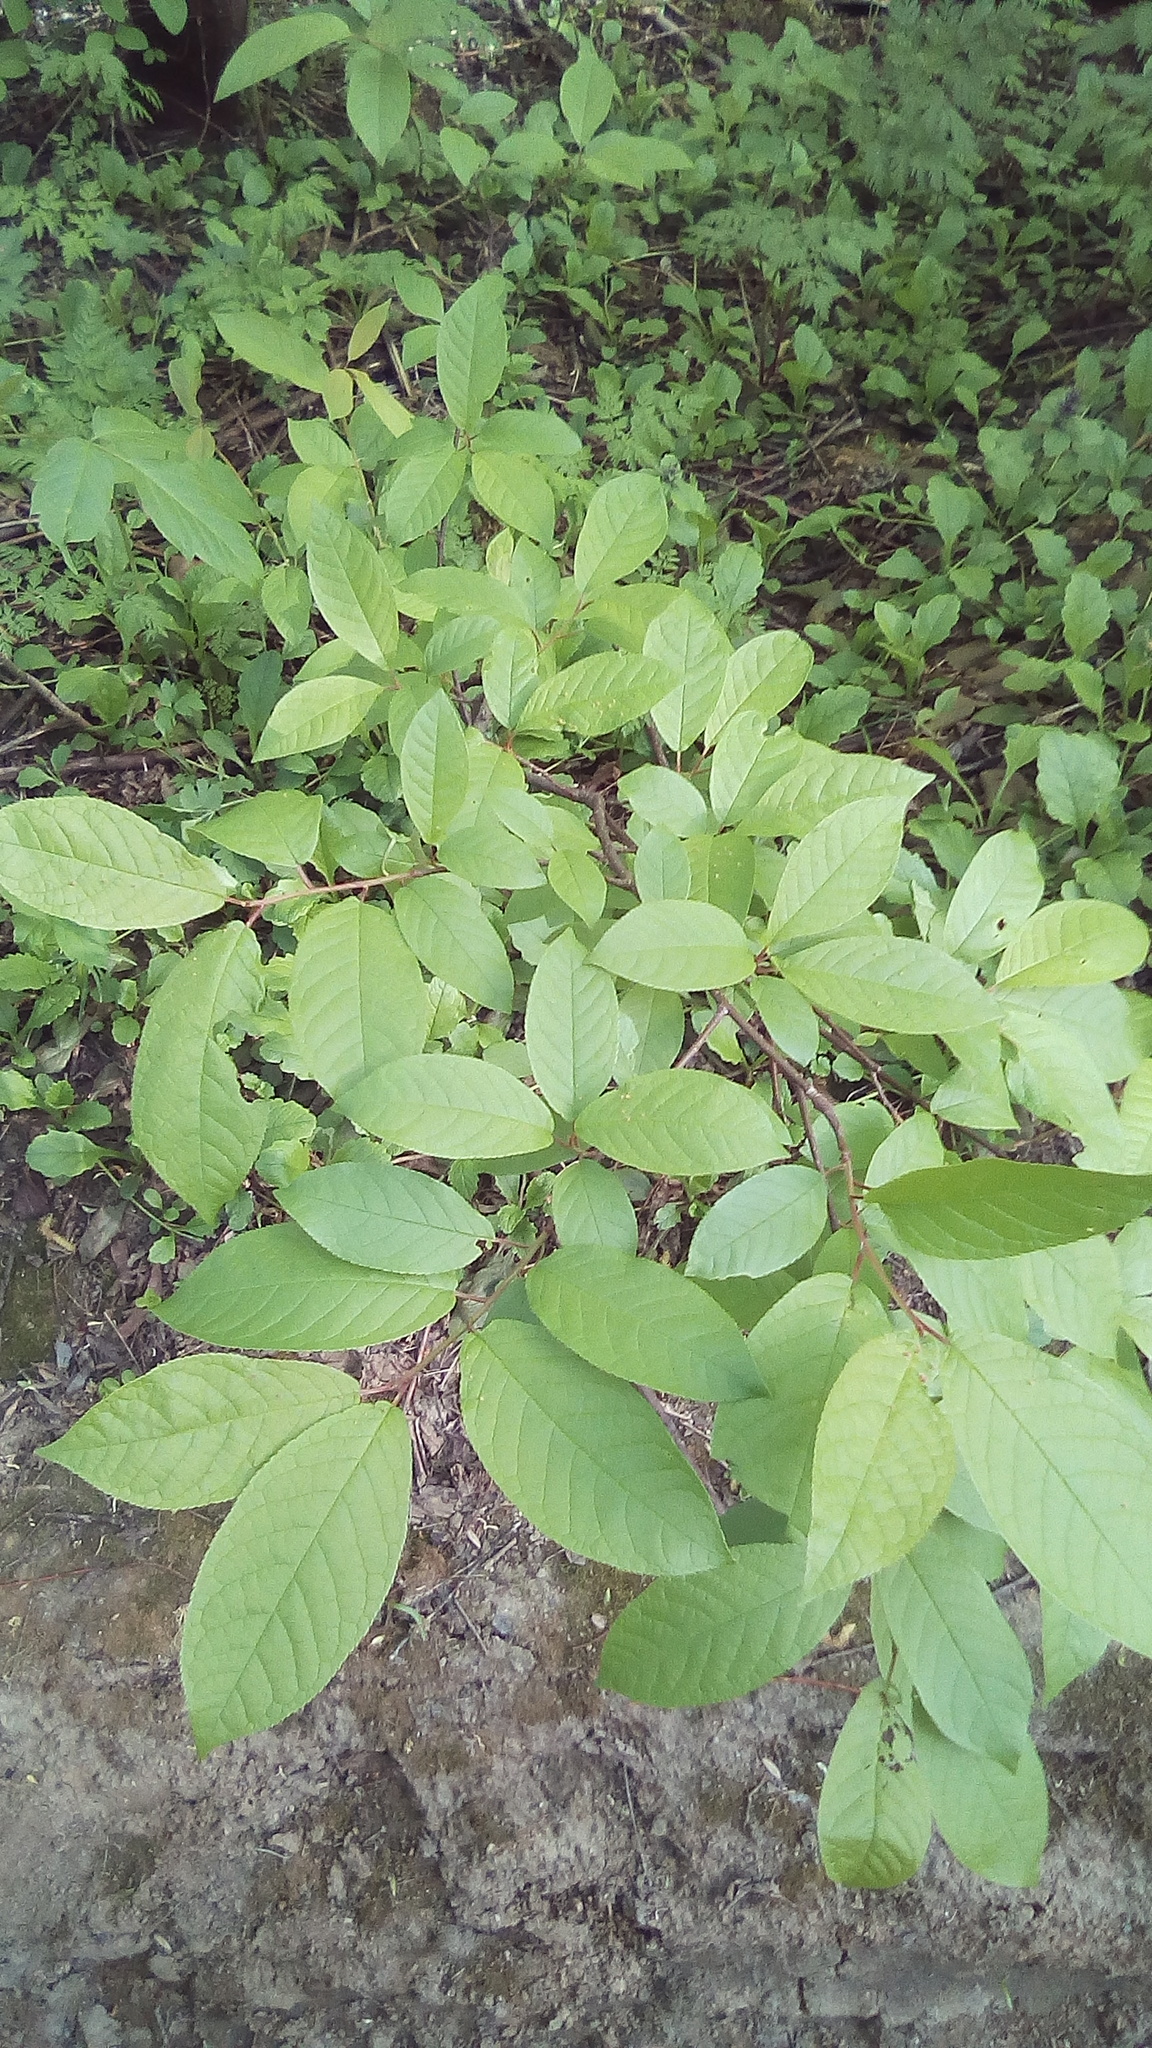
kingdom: Plantae
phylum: Tracheophyta
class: Magnoliopsida
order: Rosales
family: Rosaceae
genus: Prunus
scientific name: Prunus padus
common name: Bird cherry
